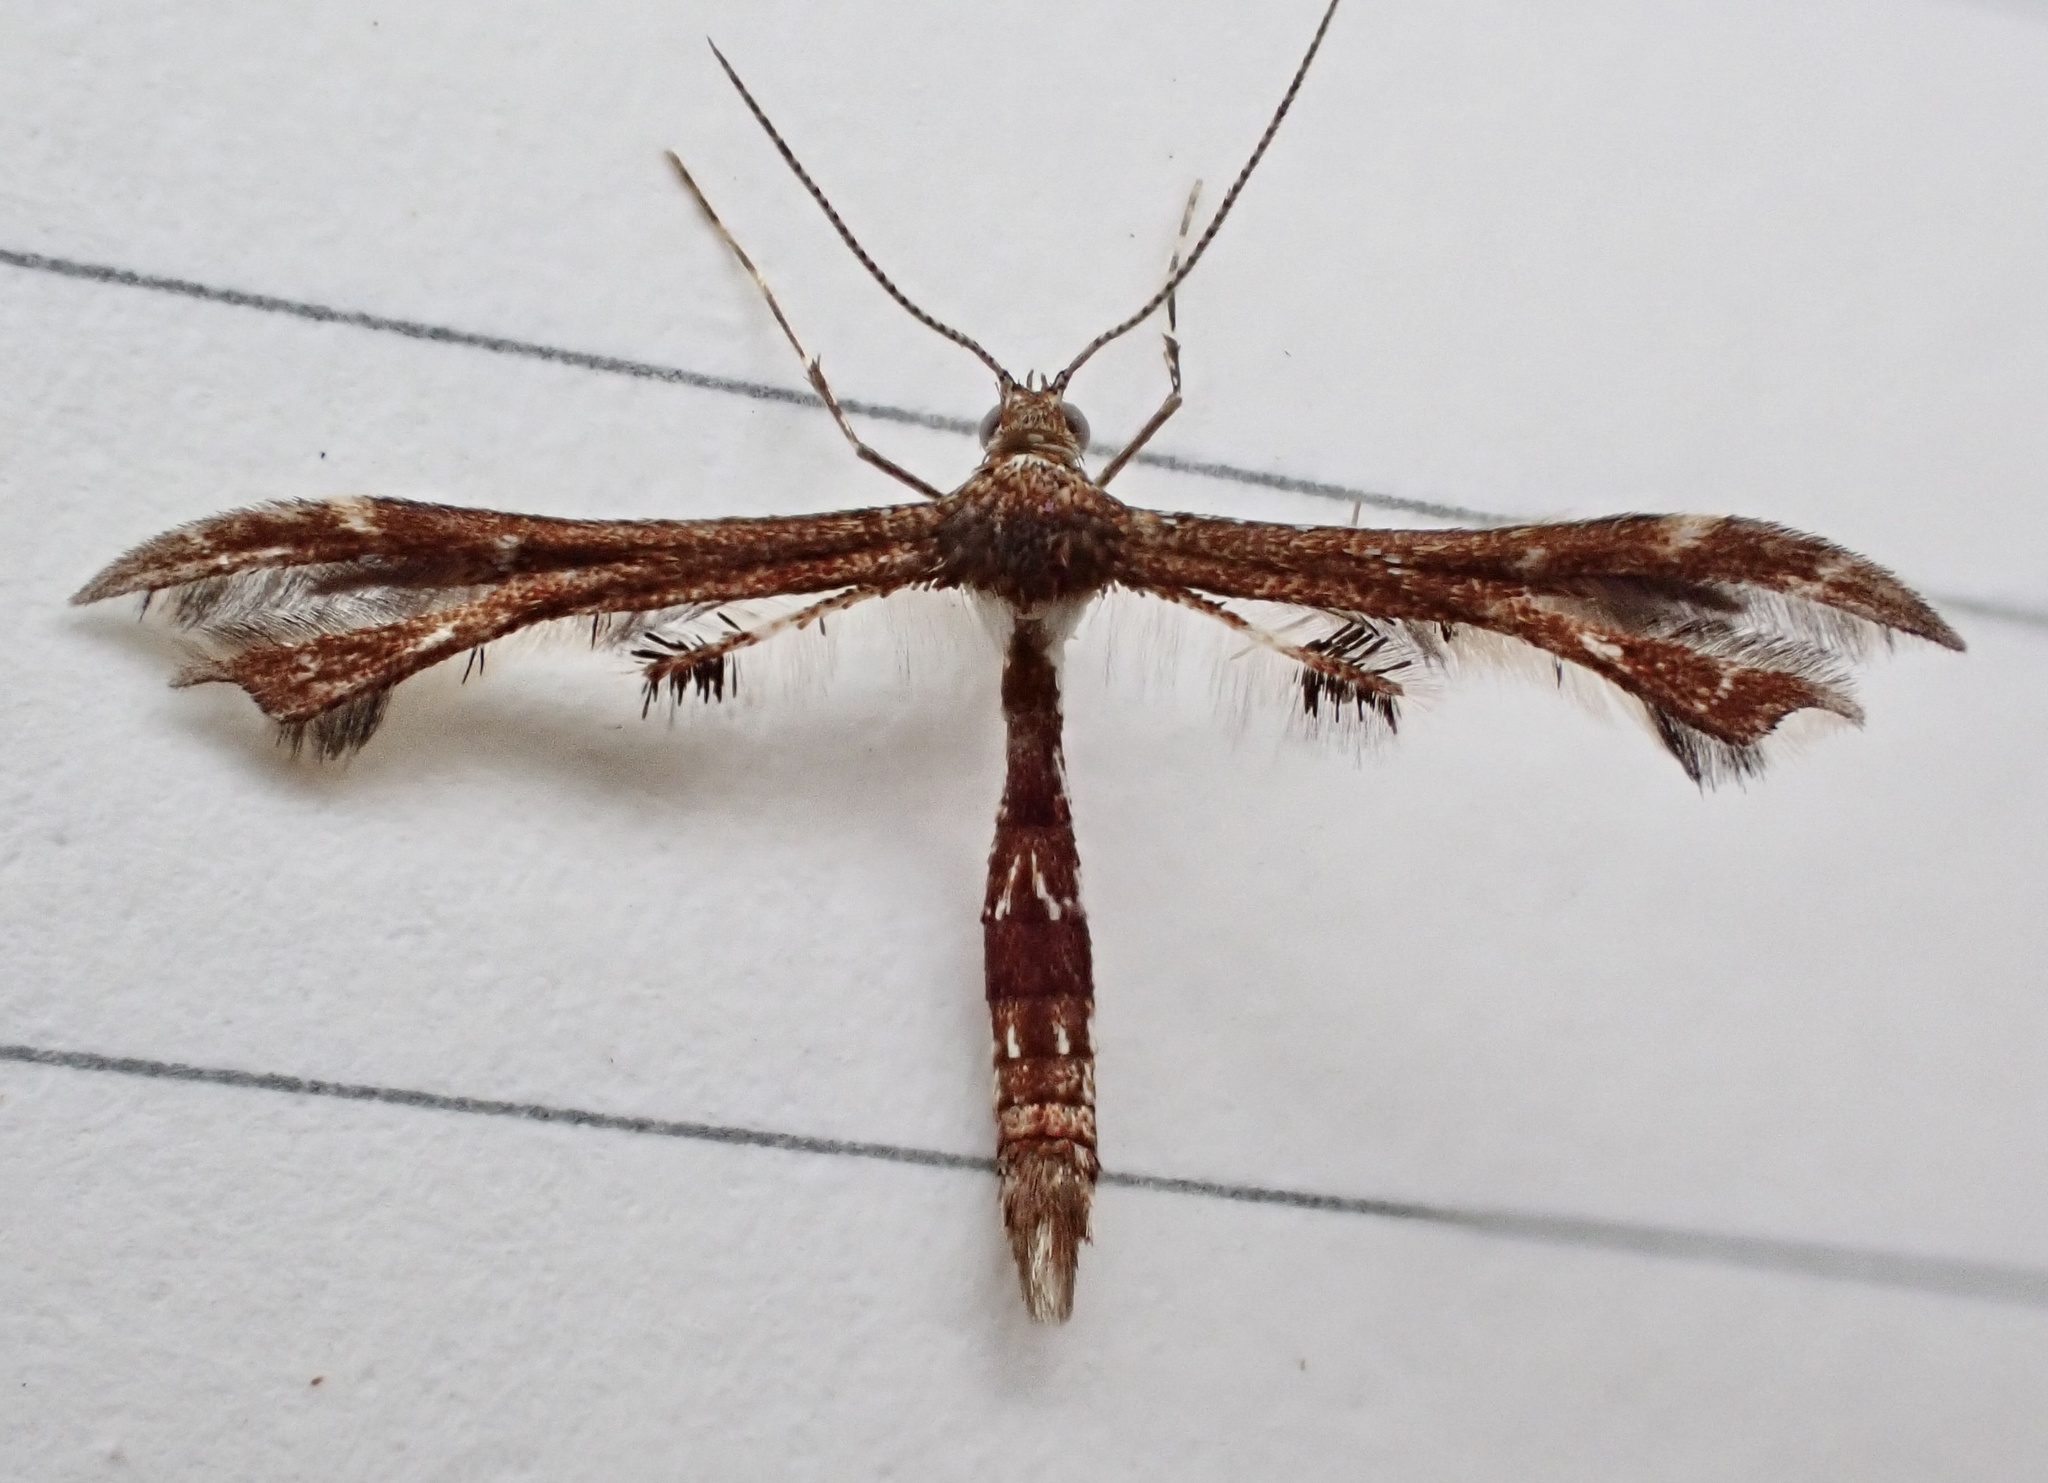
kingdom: Animalia
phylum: Arthropoda
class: Insecta
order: Lepidoptera
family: Pterophoridae
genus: Geina
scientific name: Geina
